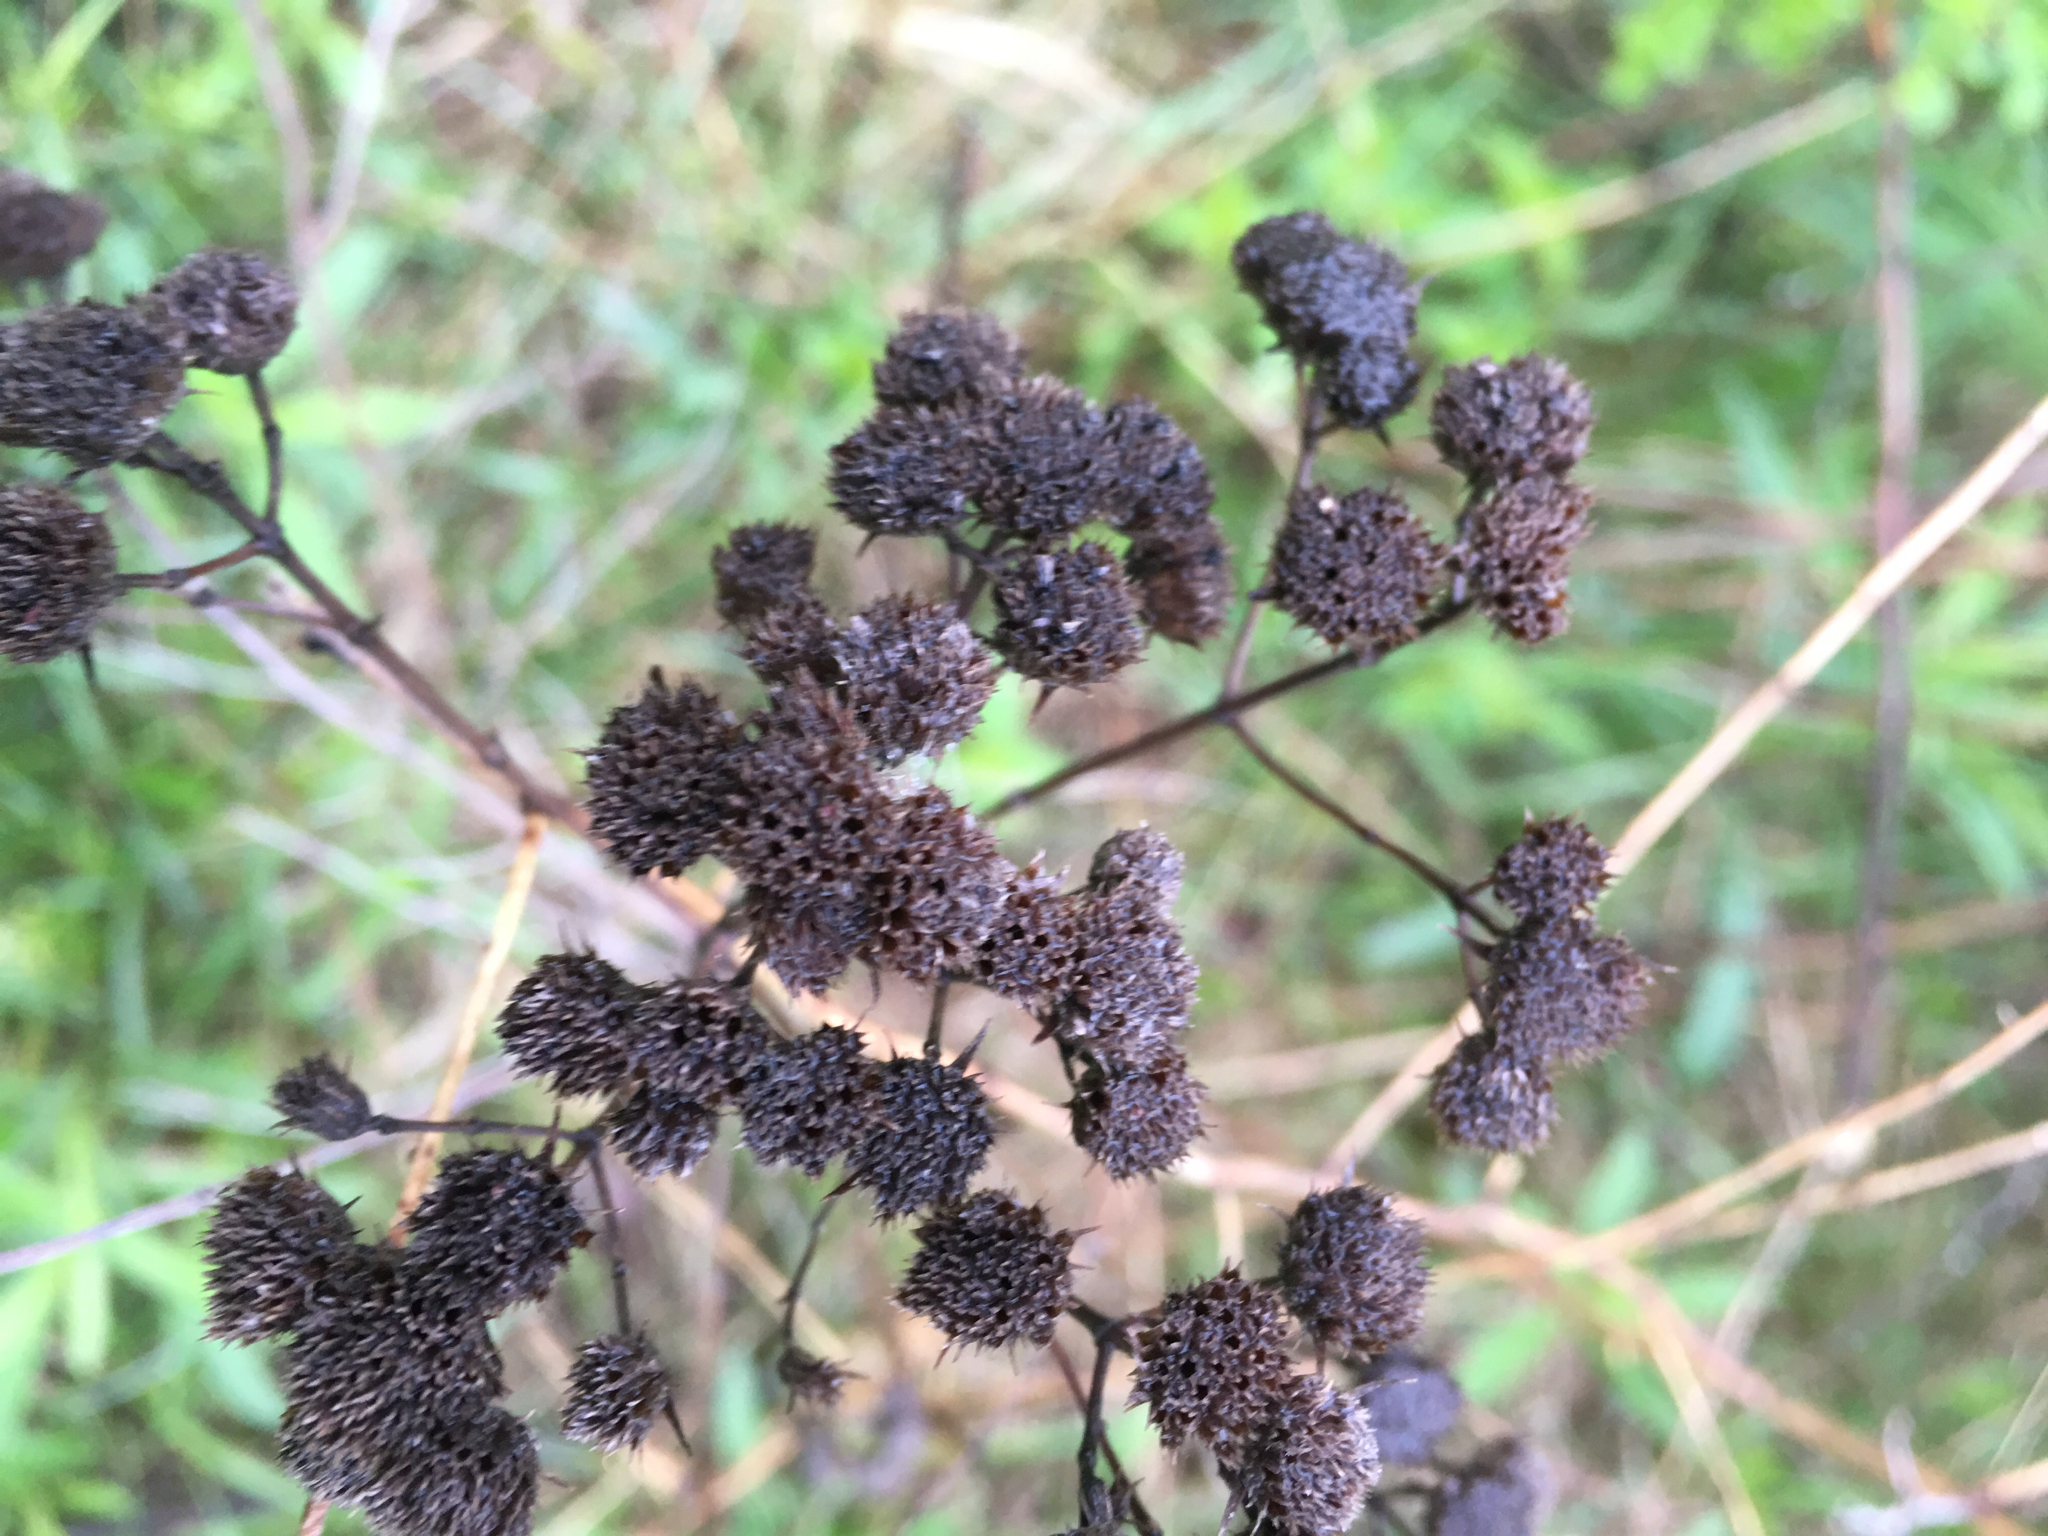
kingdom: Plantae
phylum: Tracheophyta
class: Magnoliopsida
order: Lamiales
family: Lamiaceae
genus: Pycnanthemum
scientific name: Pycnanthemum virginianum
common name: Virginia mountain-mint
